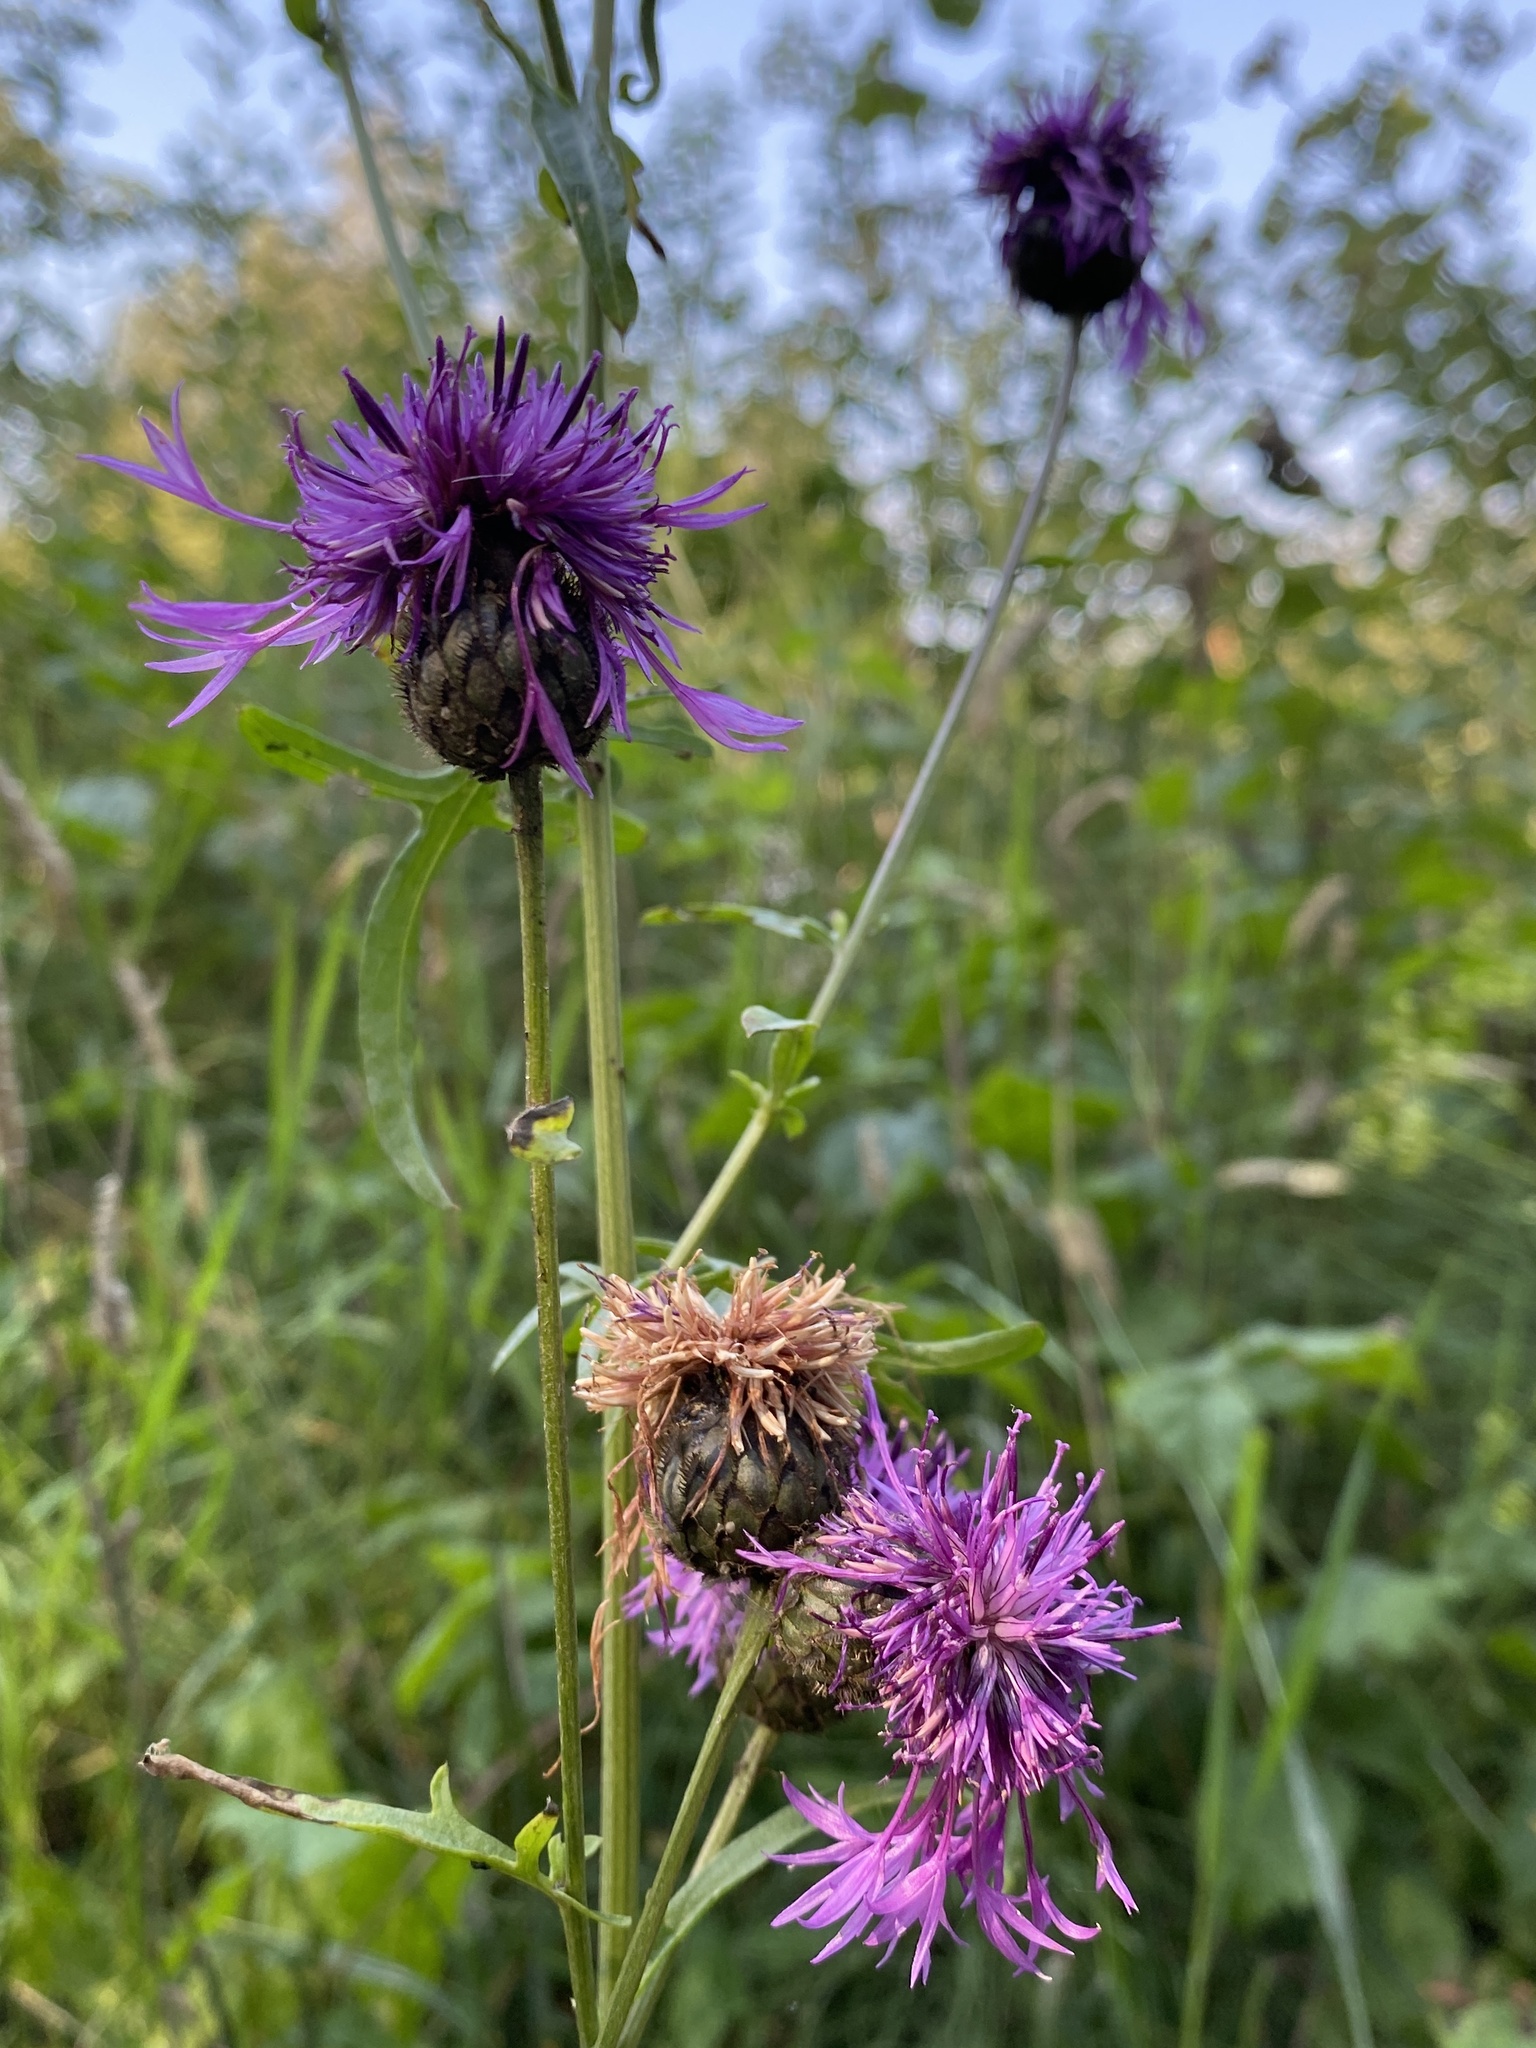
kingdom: Plantae
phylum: Tracheophyta
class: Magnoliopsida
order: Asterales
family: Asteraceae
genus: Centaurea
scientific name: Centaurea scabiosa
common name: Greater knapweed
